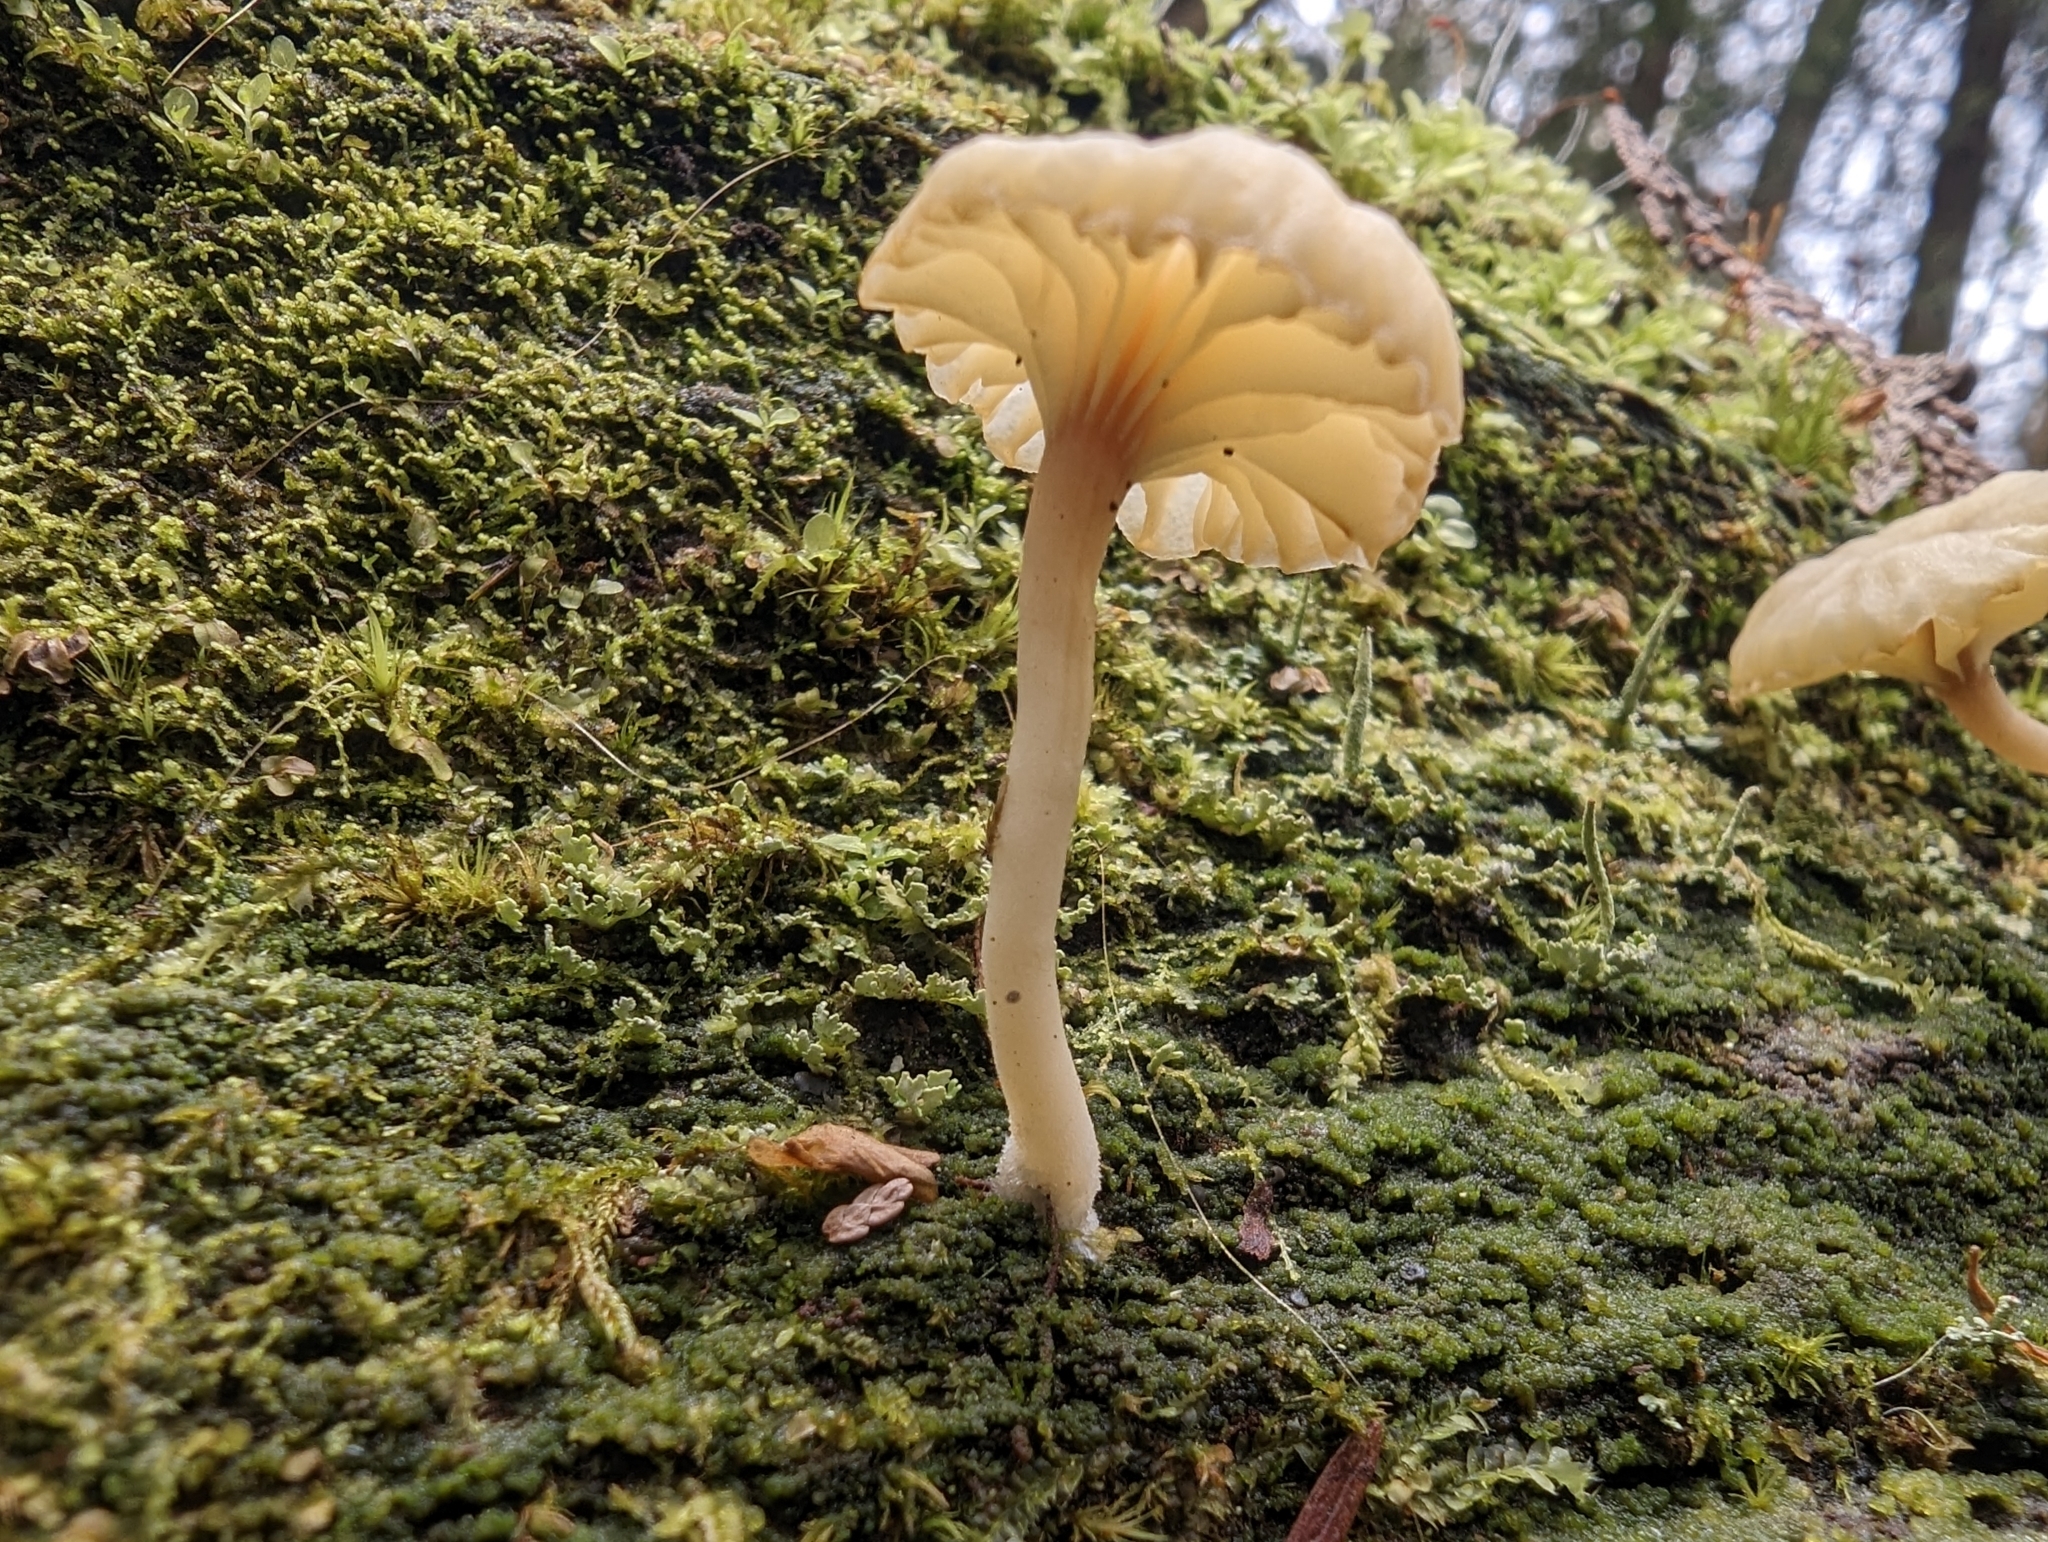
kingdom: Fungi
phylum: Basidiomycota
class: Agaricomycetes
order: Agaricales
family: Hygrophoraceae
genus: Lichenomphalia
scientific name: Lichenomphalia
